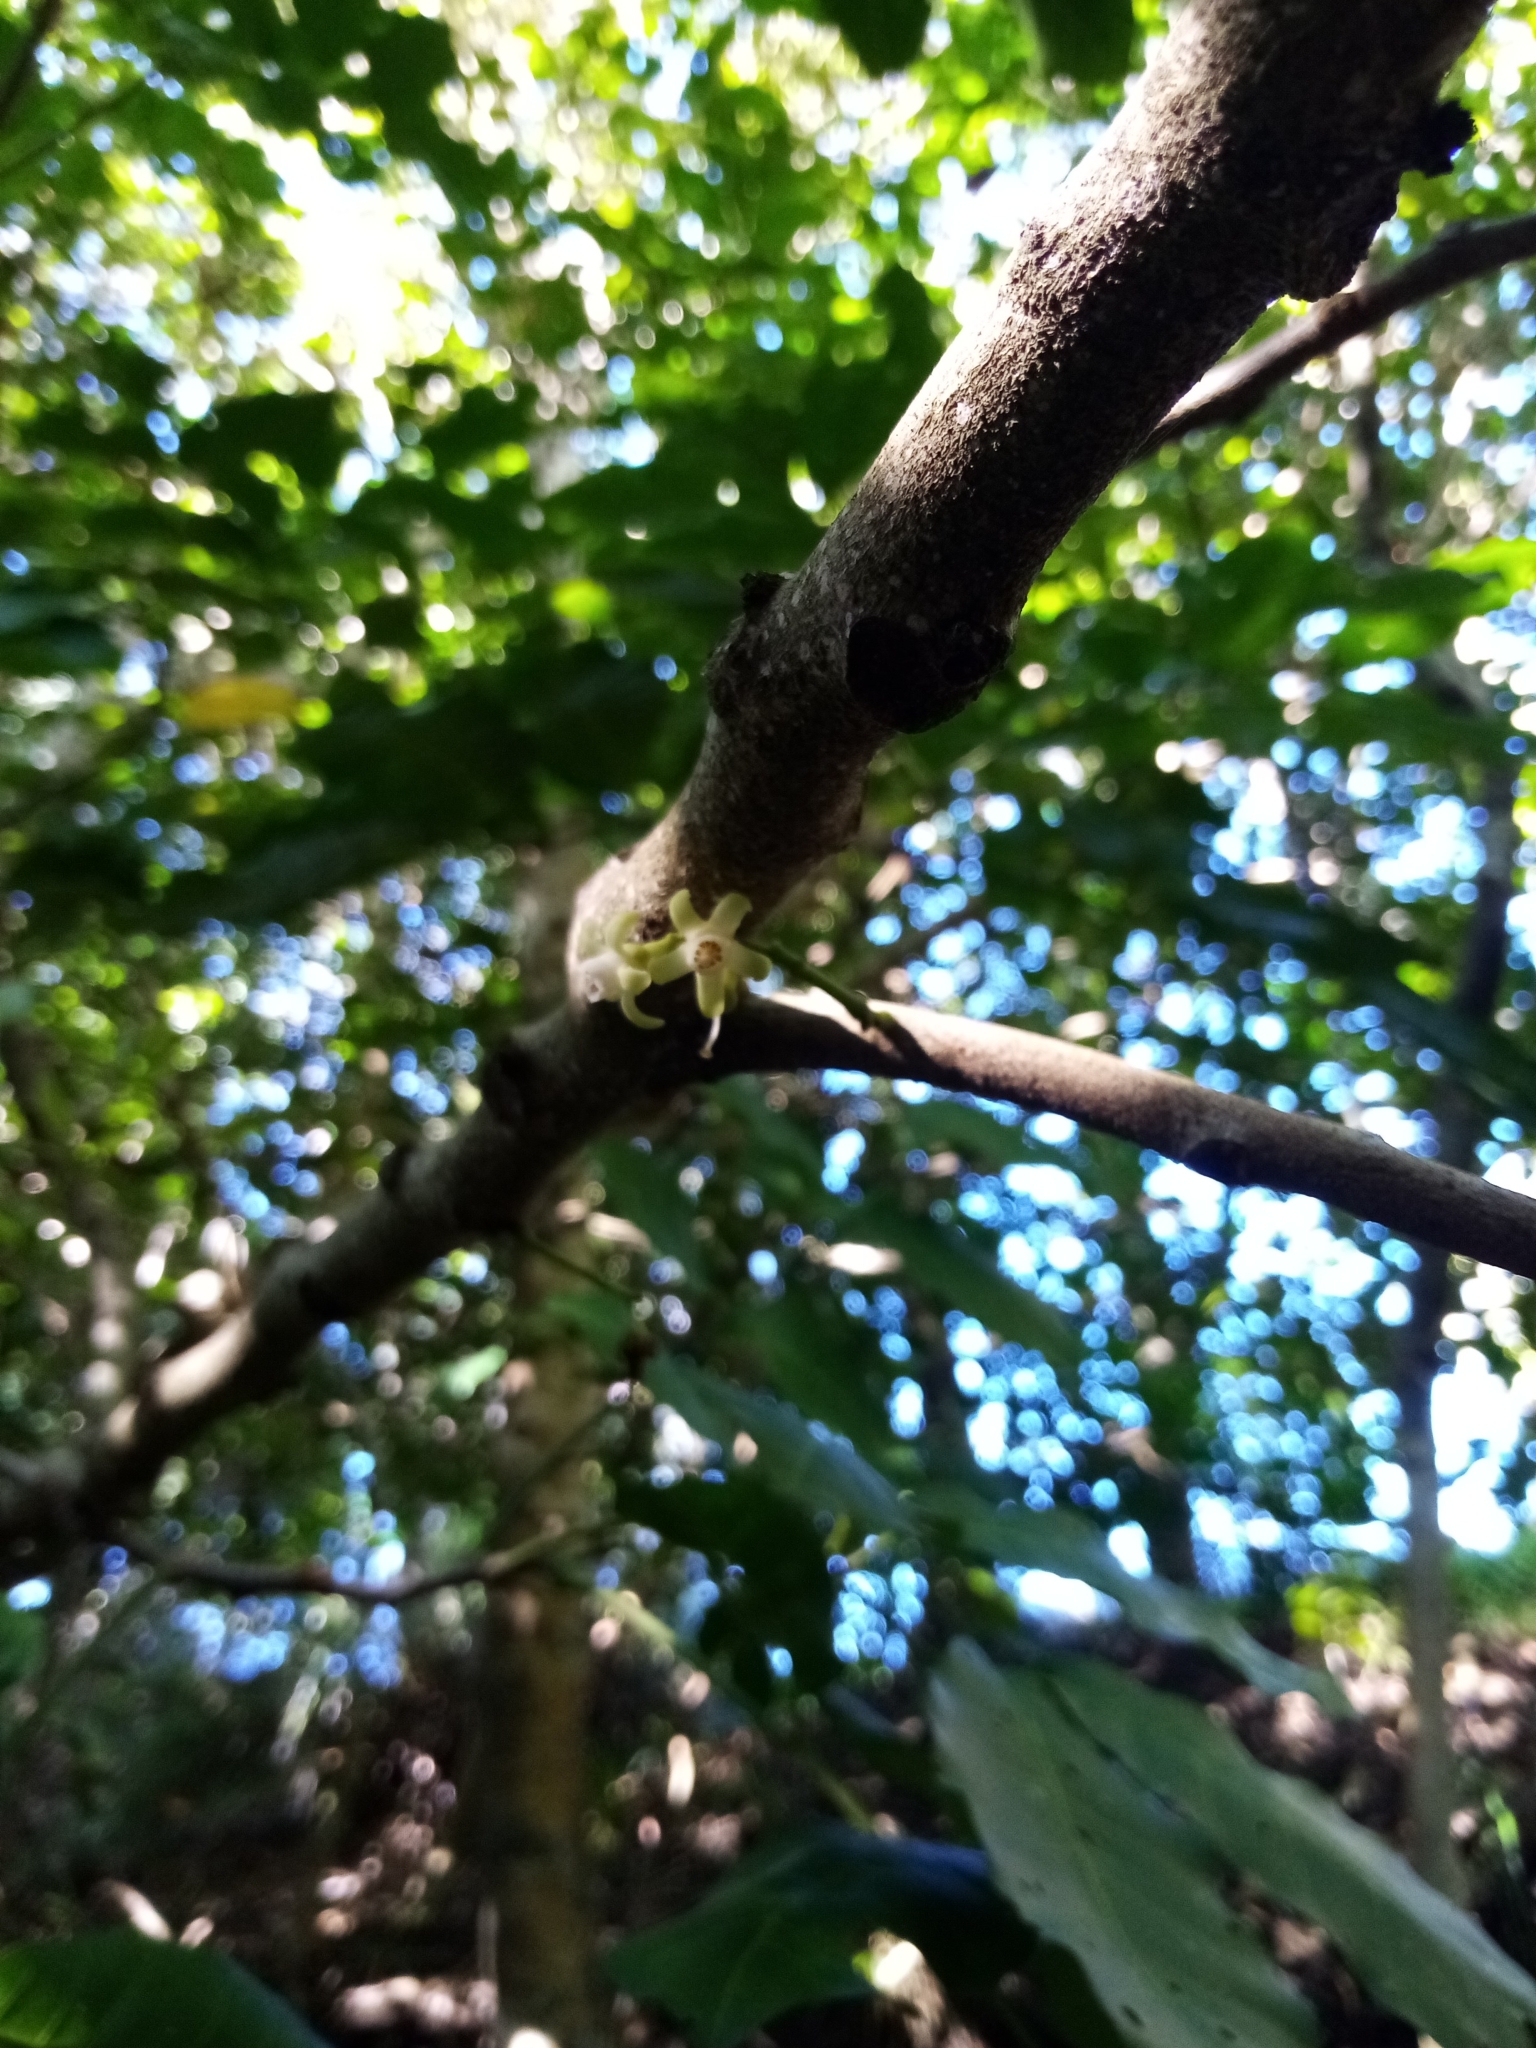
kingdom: Plantae
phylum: Tracheophyta
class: Magnoliopsida
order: Sapindales
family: Meliaceae
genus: Didymocheton
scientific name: Didymocheton spectabilis
